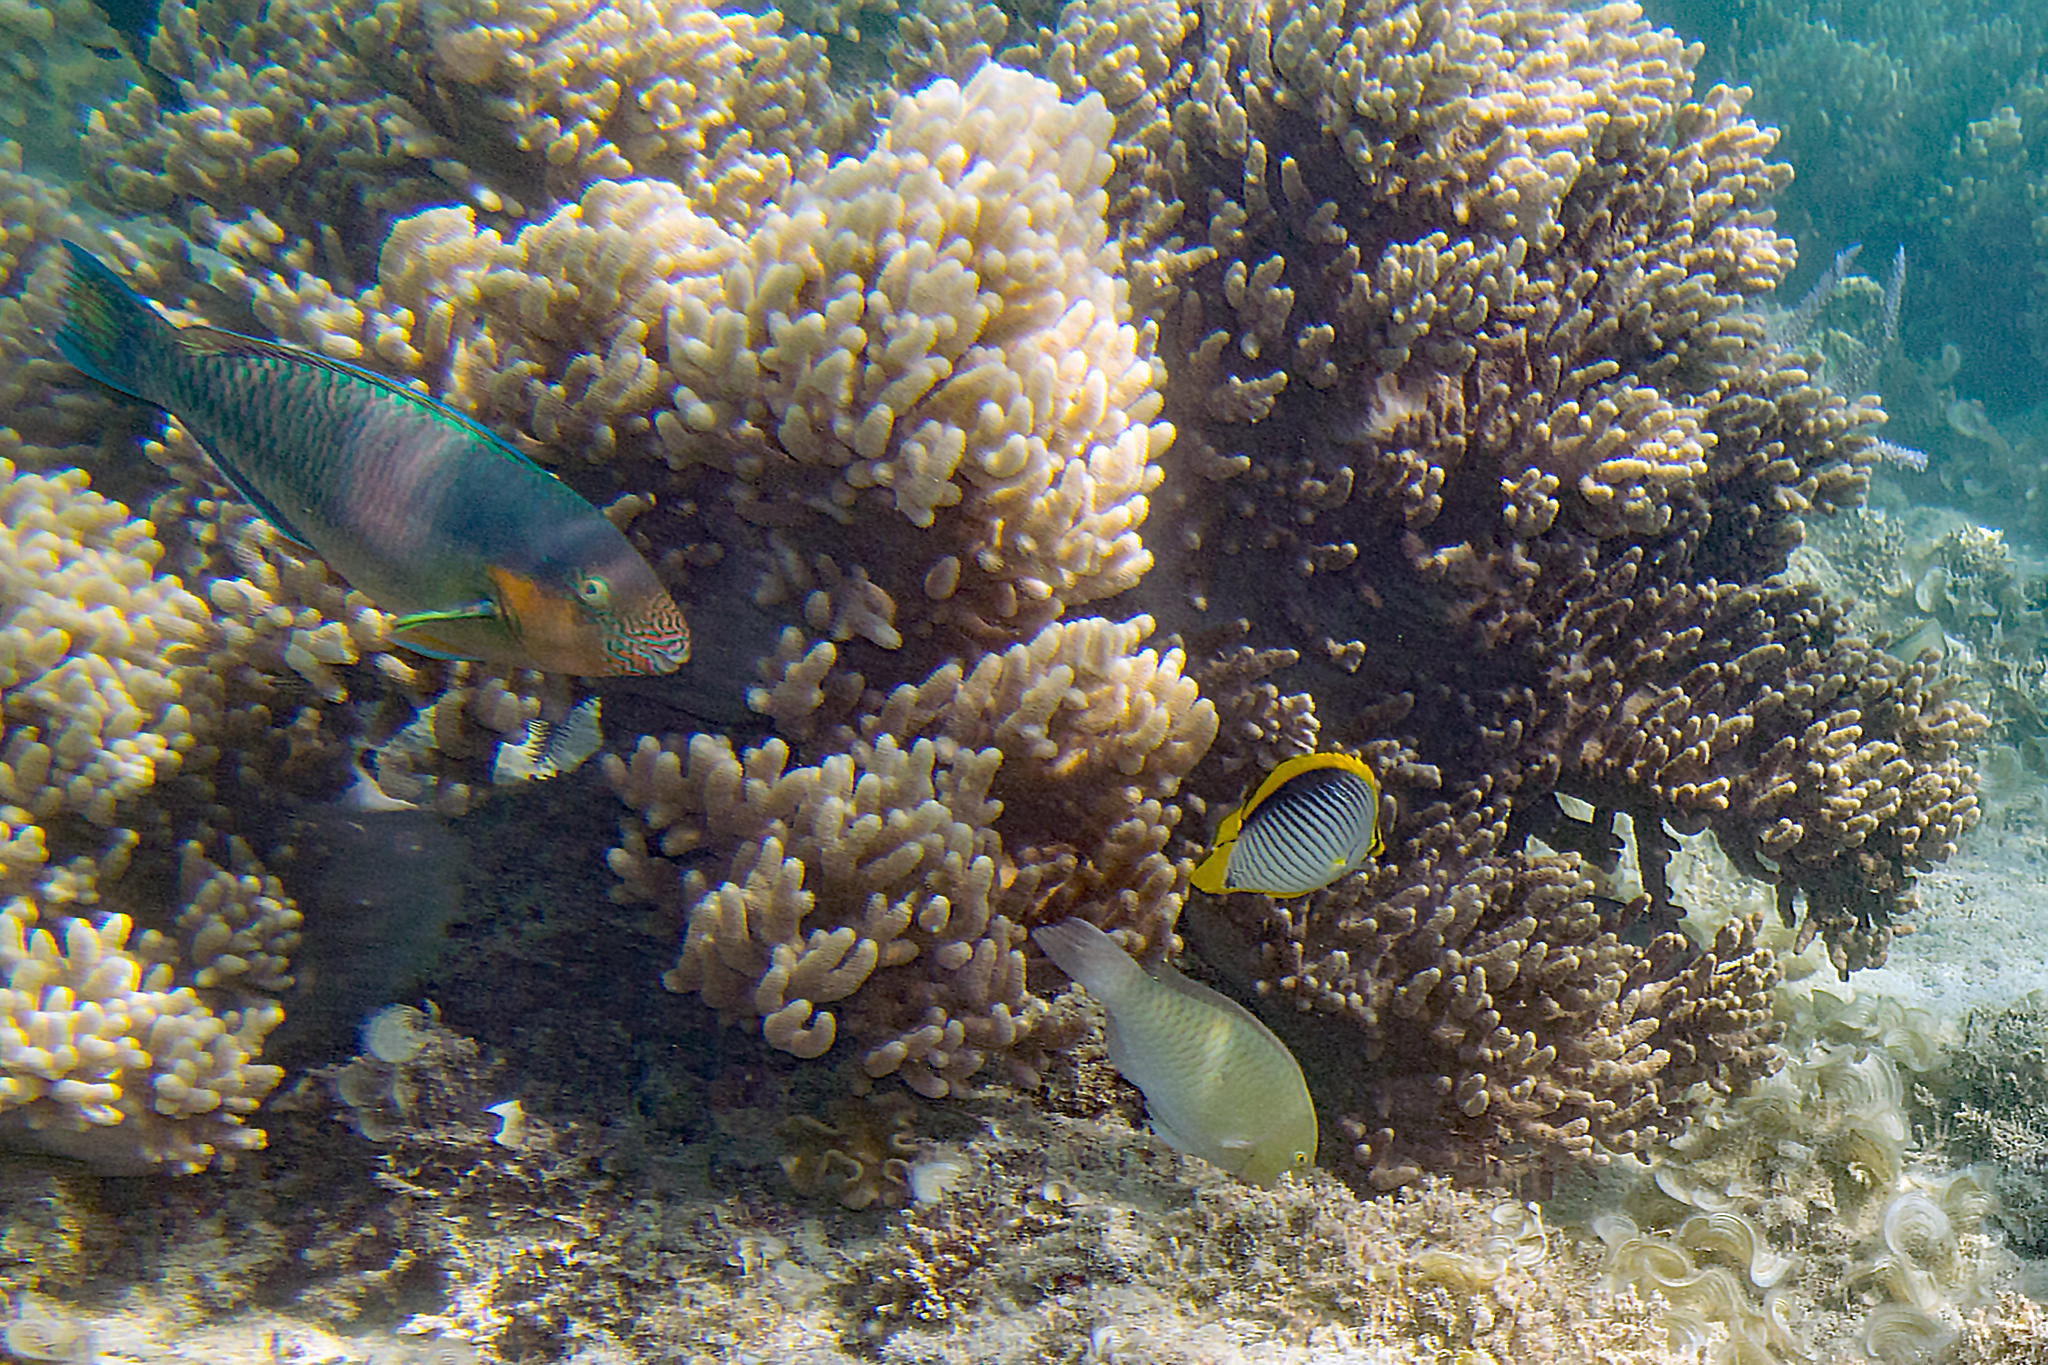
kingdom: Animalia
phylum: Chordata
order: Perciformes
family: Chaetodontidae
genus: Chaetodon
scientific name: Chaetodon melannotus
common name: Blackback butterflyfish
